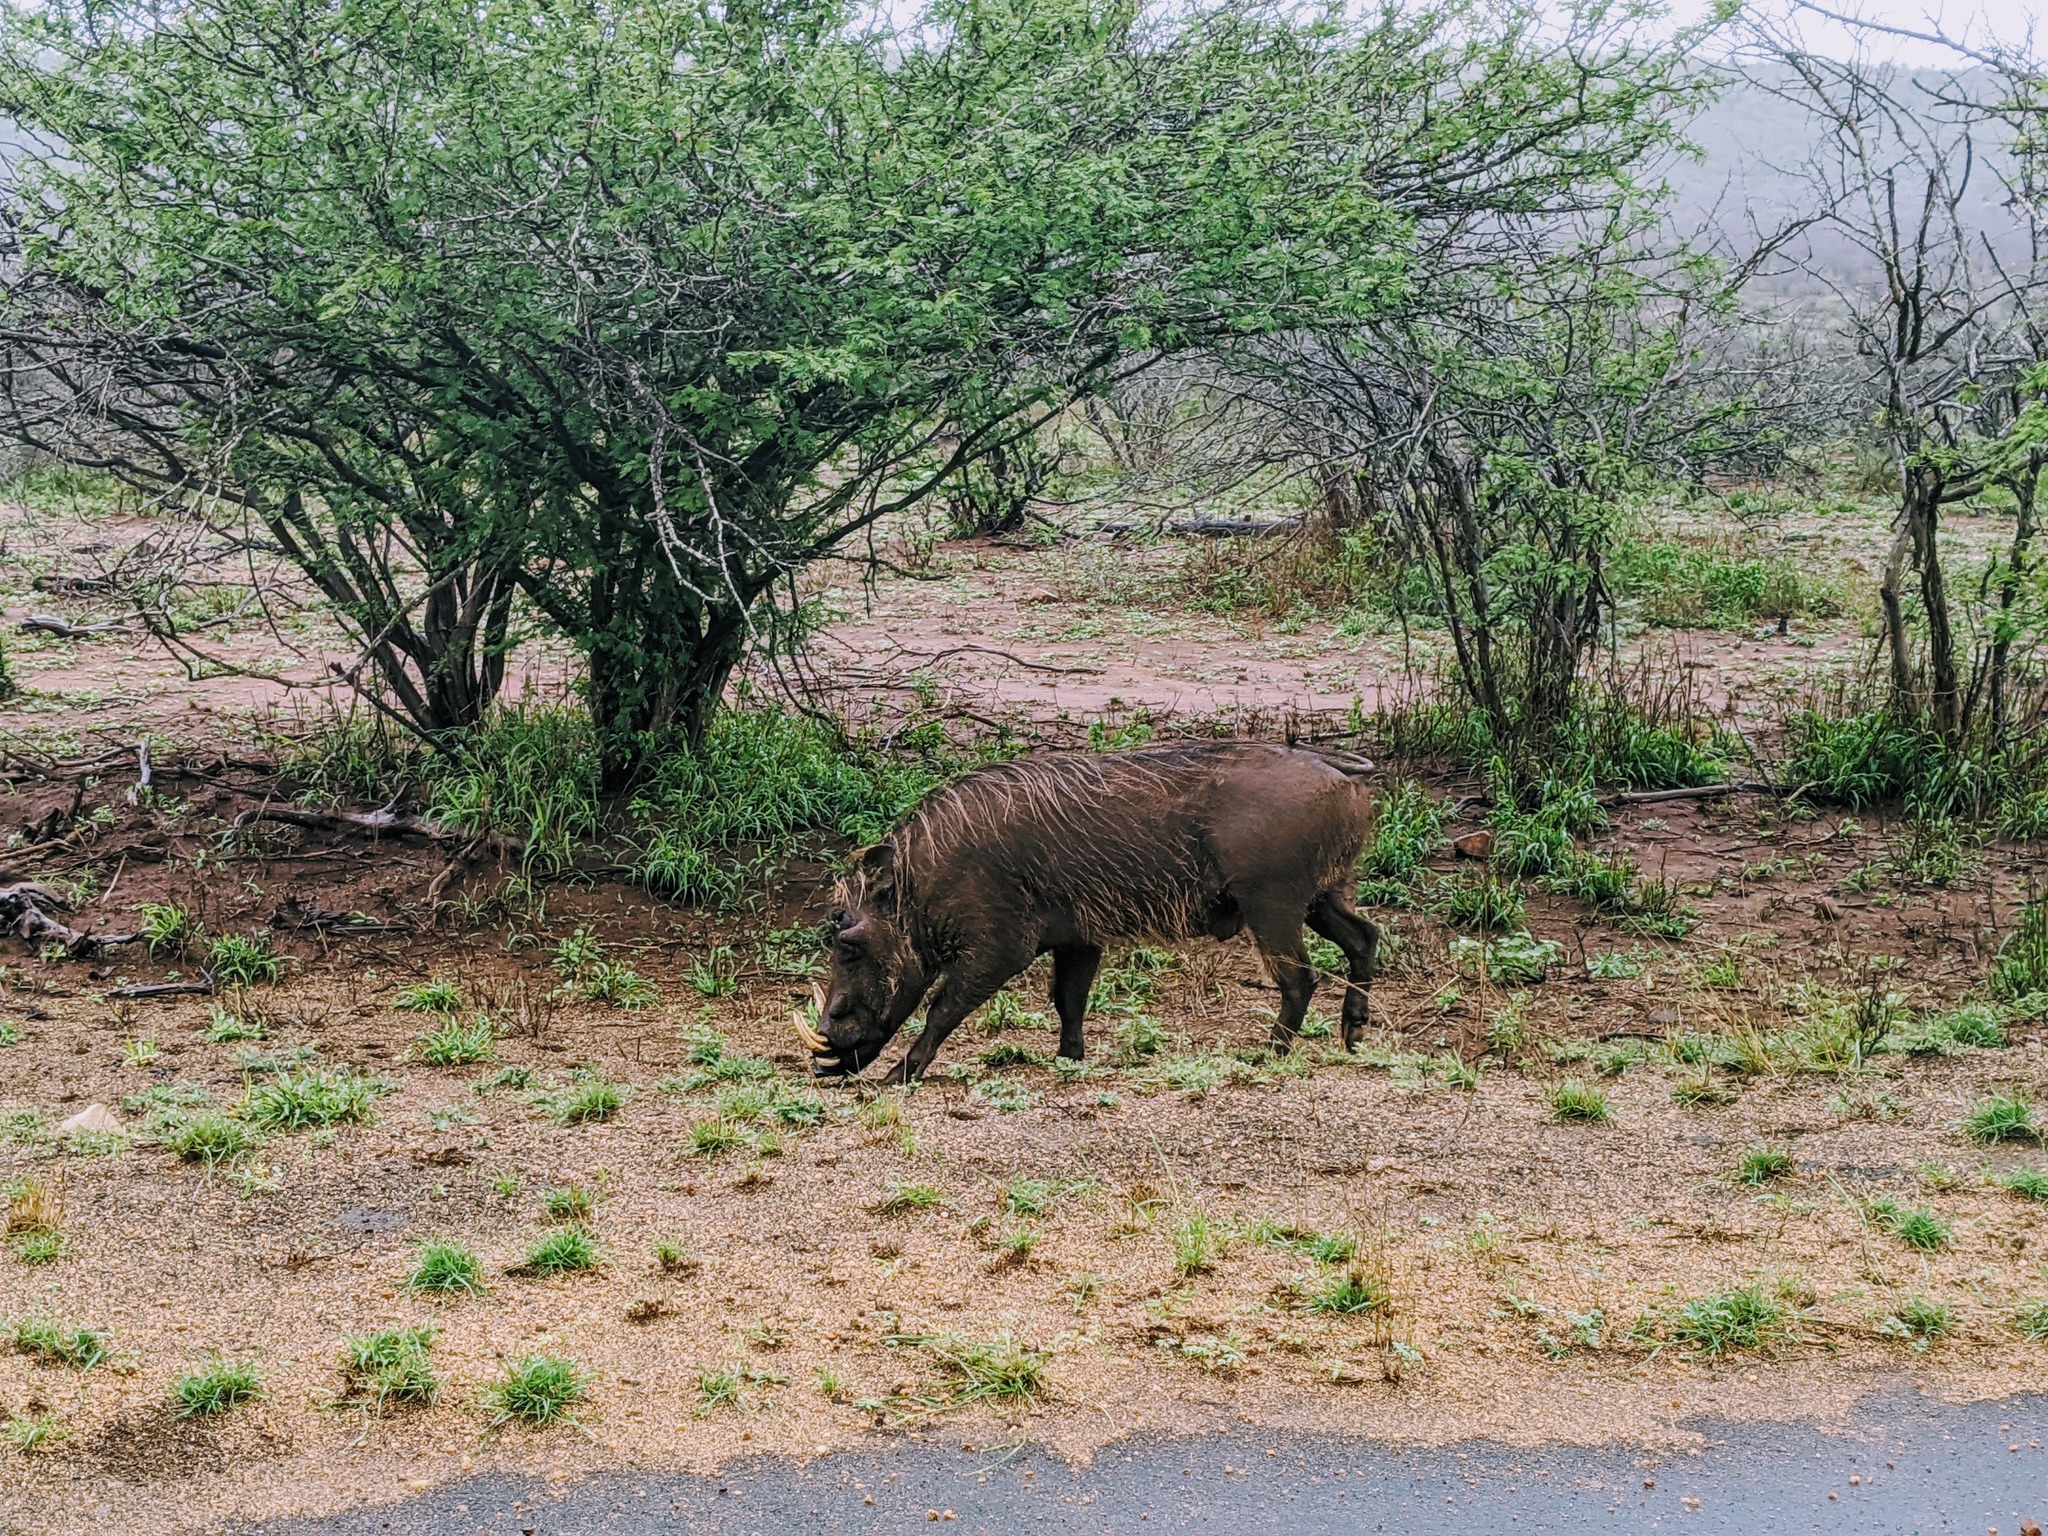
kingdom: Animalia
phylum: Chordata
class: Mammalia
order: Artiodactyla
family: Suidae
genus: Phacochoerus
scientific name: Phacochoerus africanus
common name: Common warthog
